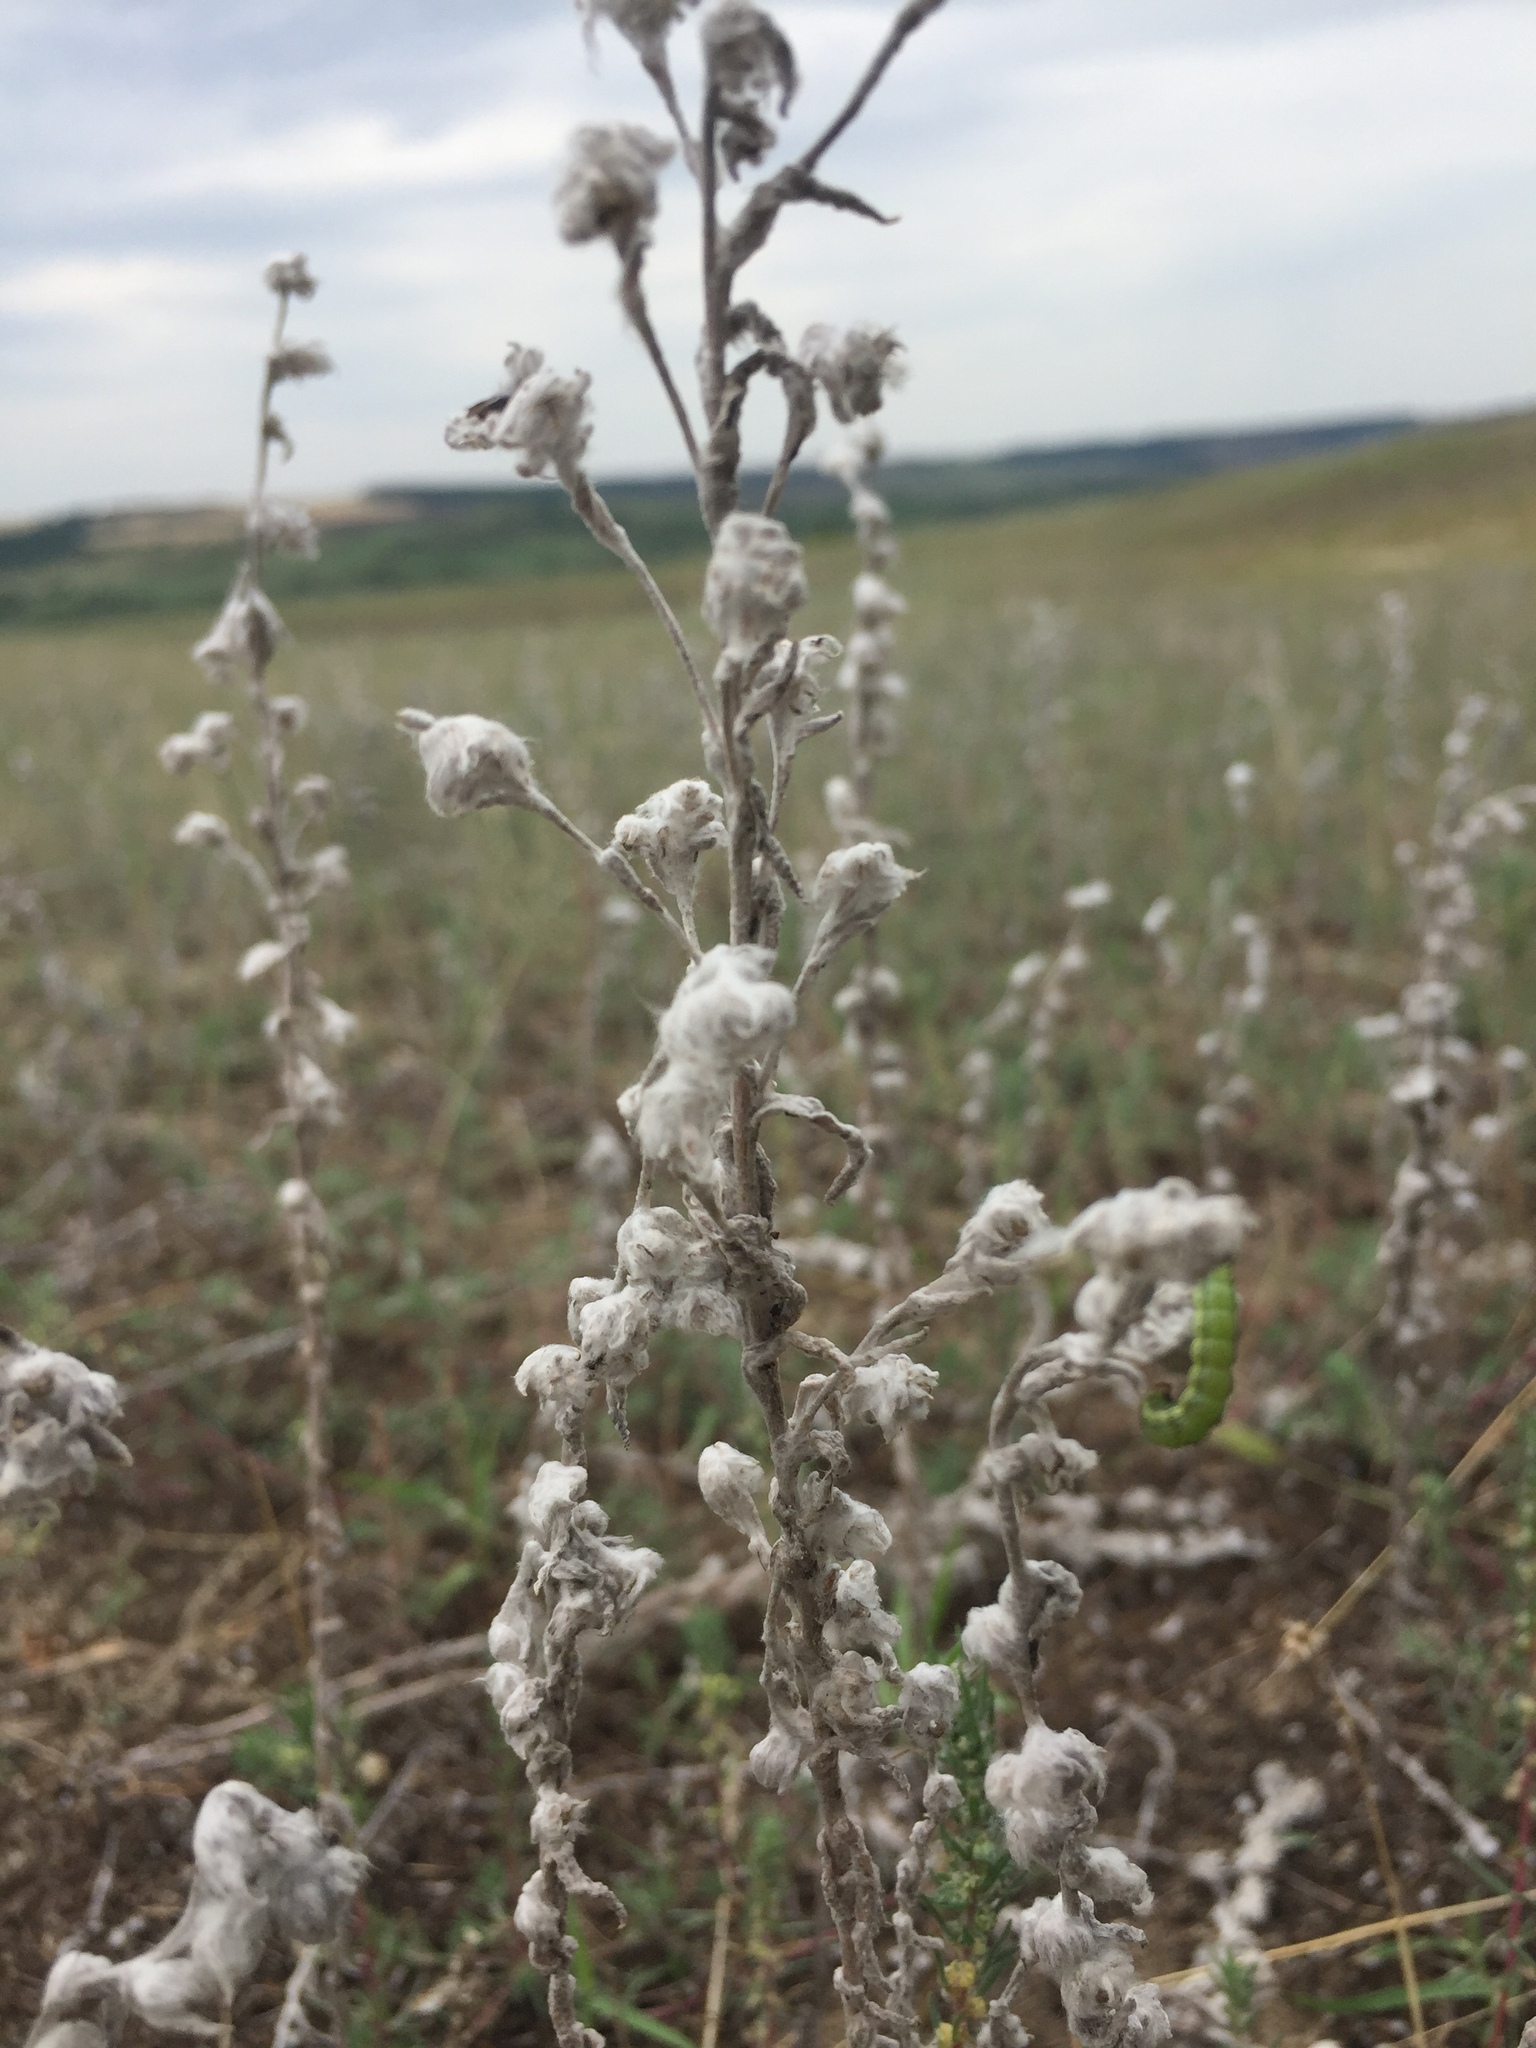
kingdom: Plantae
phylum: Tracheophyta
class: Magnoliopsida
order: Asterales
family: Asteraceae
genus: Filago
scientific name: Filago arvensis
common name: Field cudweed
